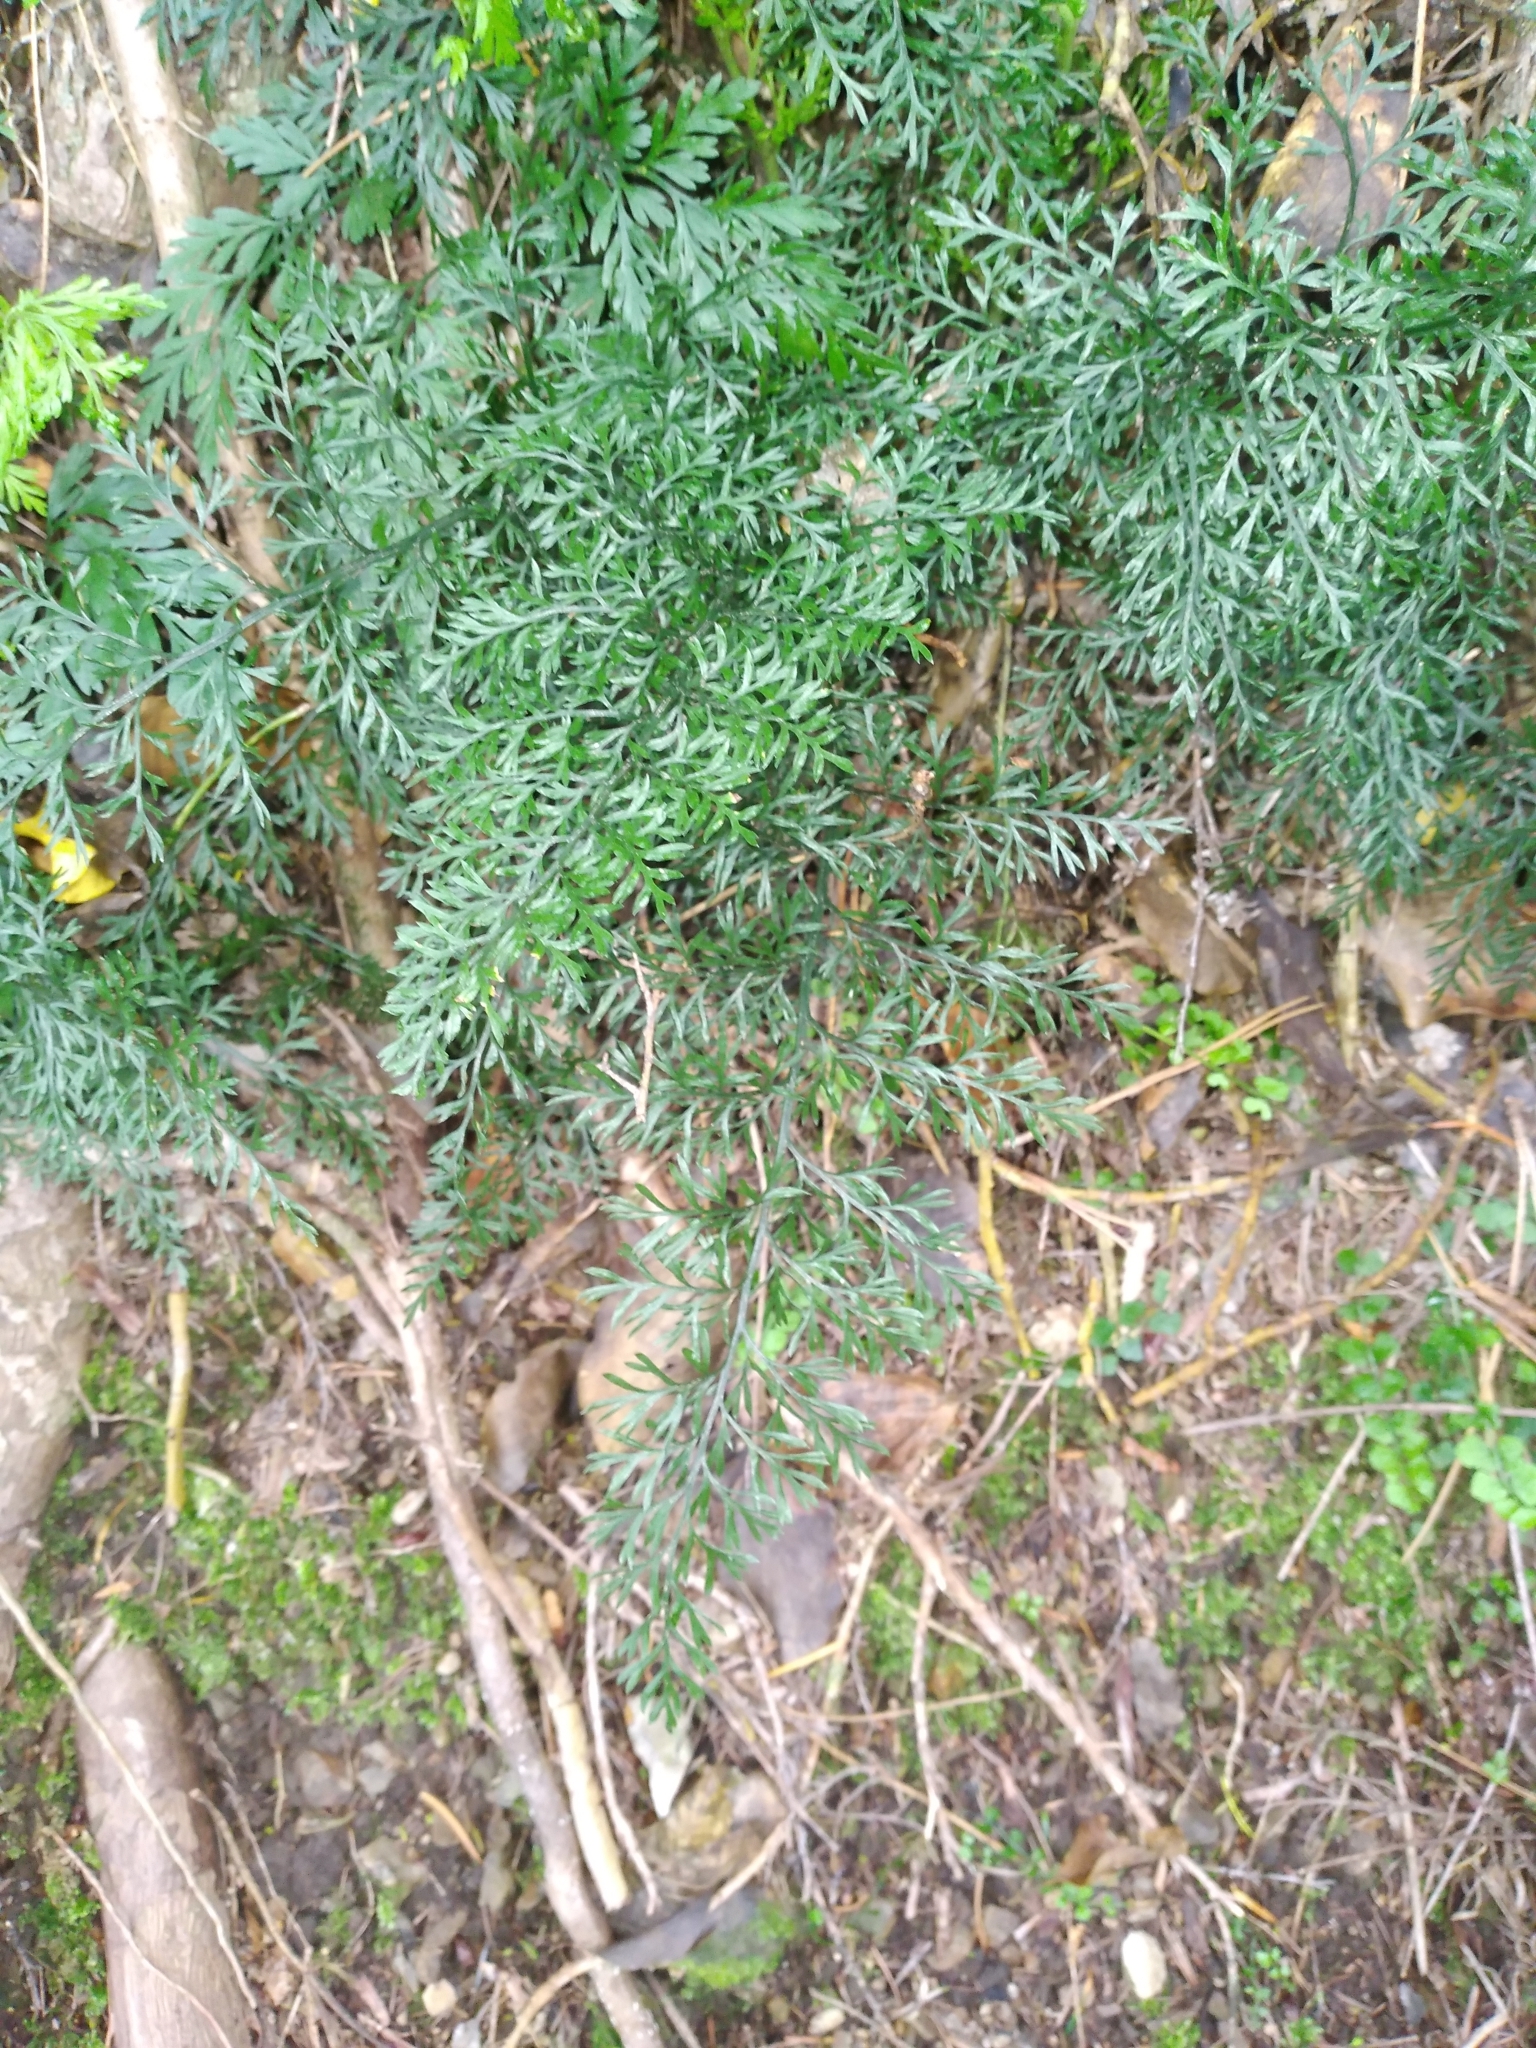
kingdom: Plantae
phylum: Tracheophyta
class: Polypodiopsida
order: Polypodiales
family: Aspleniaceae
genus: Asplenium
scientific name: Asplenium richardii
